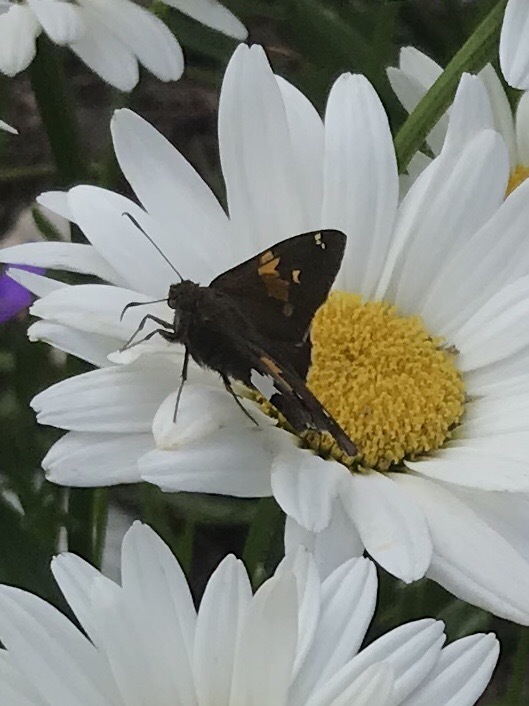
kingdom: Animalia
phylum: Arthropoda
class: Insecta
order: Lepidoptera
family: Hesperiidae
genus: Epargyreus
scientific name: Epargyreus clarus
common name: Silver-spotted skipper
